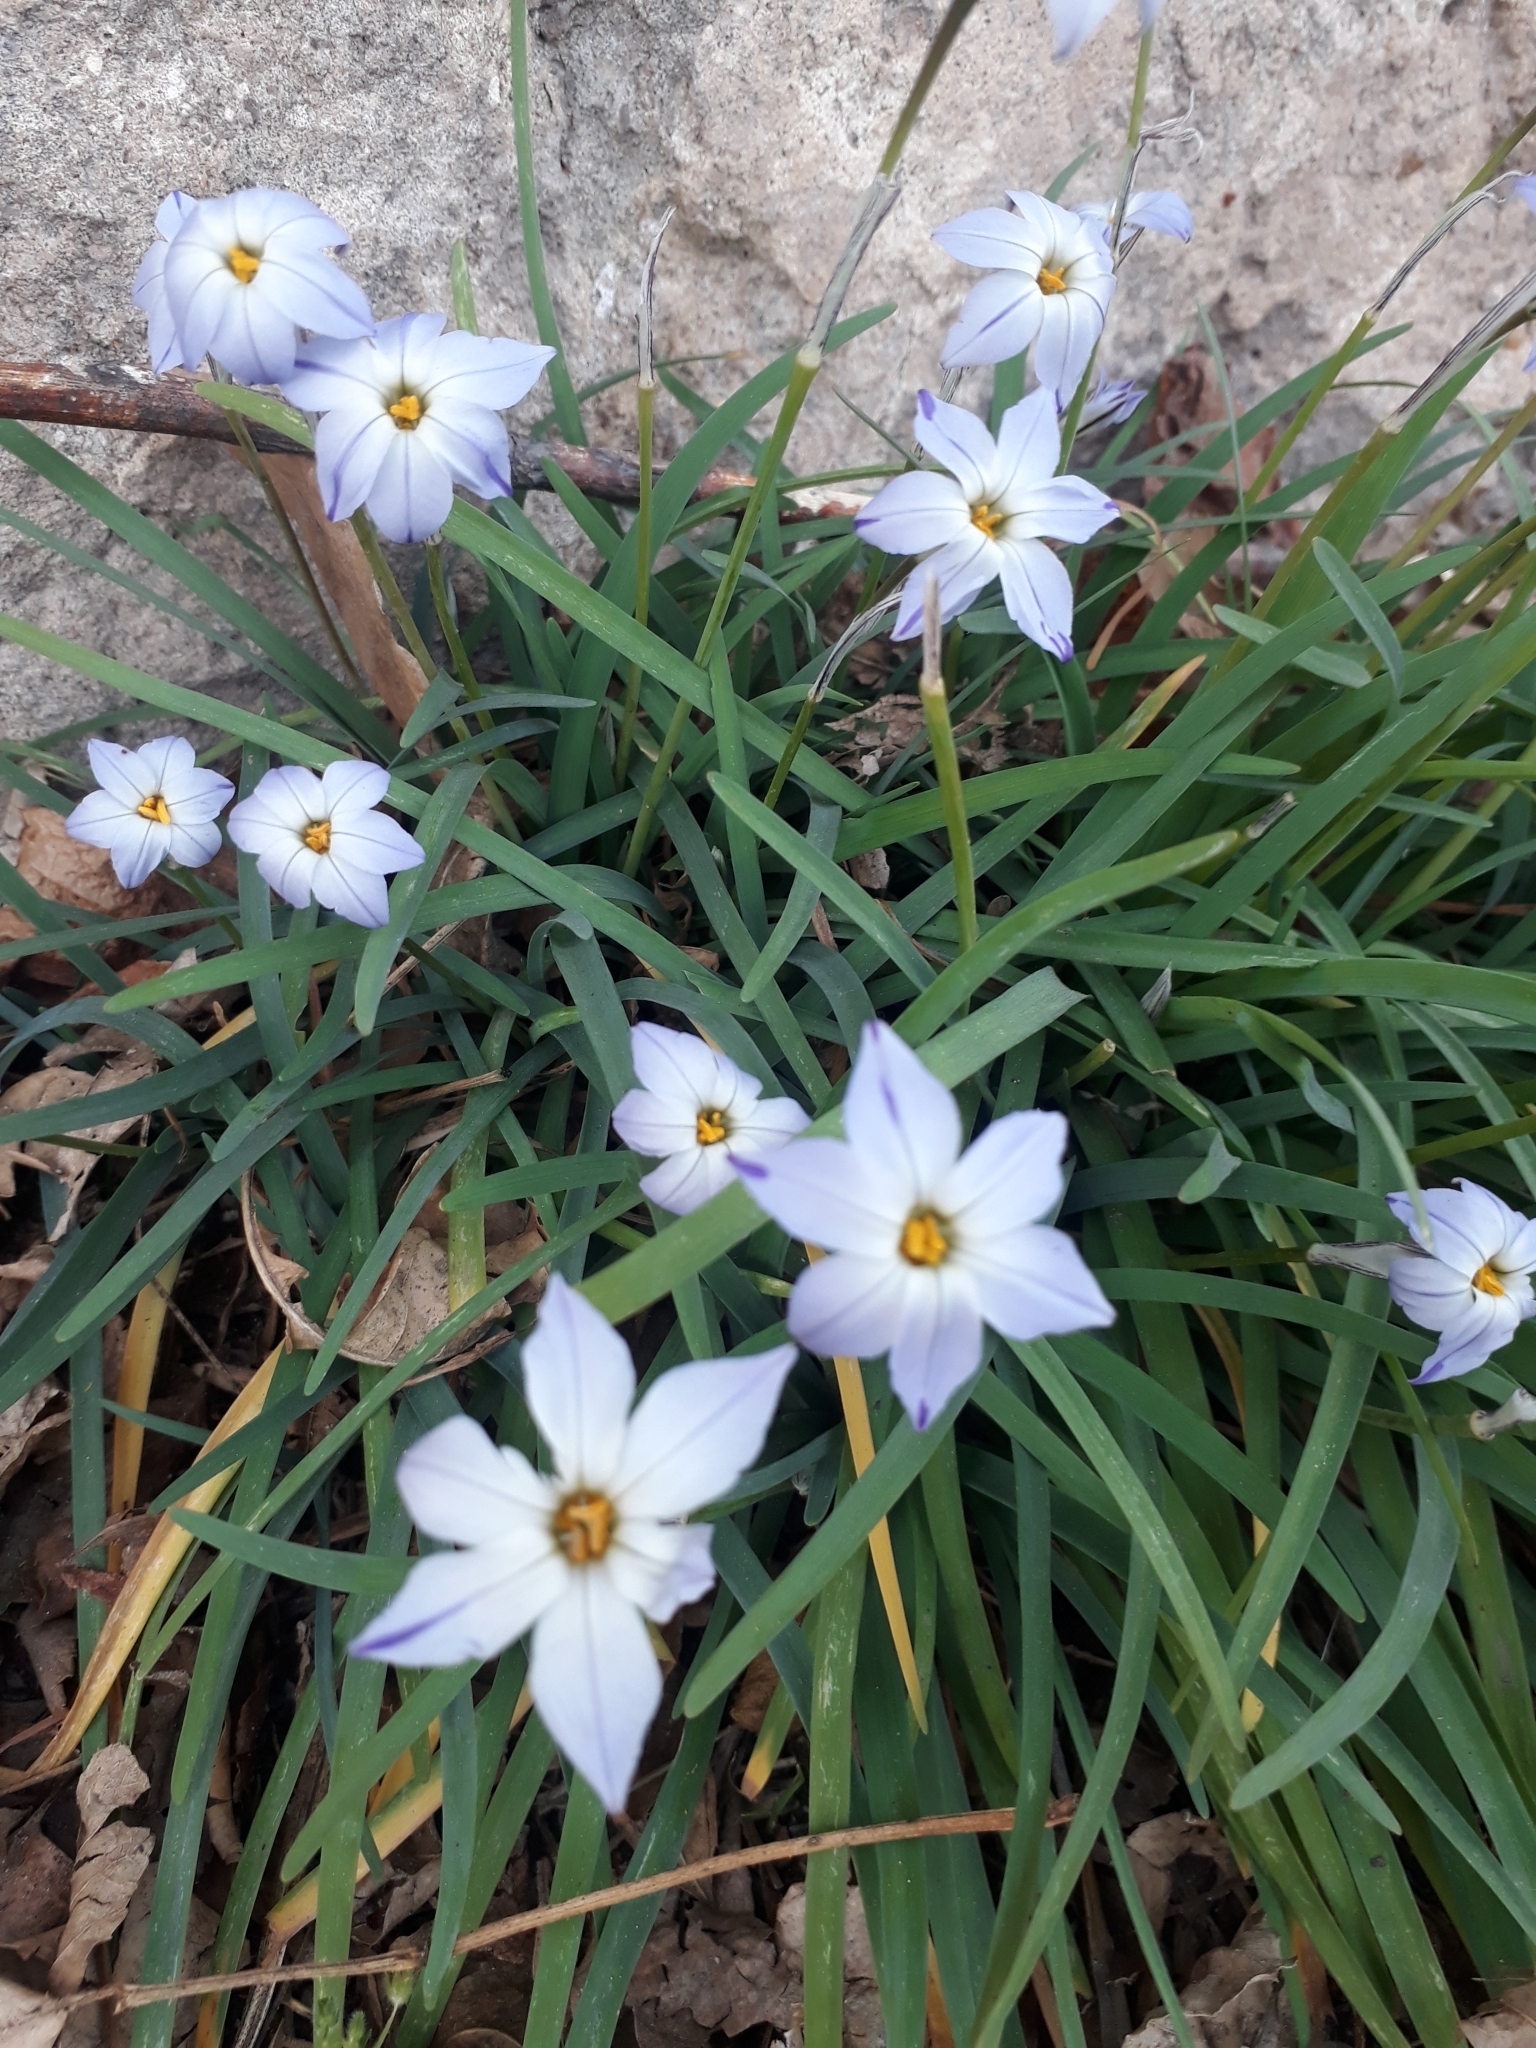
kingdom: Plantae
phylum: Tracheophyta
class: Liliopsida
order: Asparagales
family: Amaryllidaceae
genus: Ipheion
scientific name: Ipheion uniflorum
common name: Spring starflower
